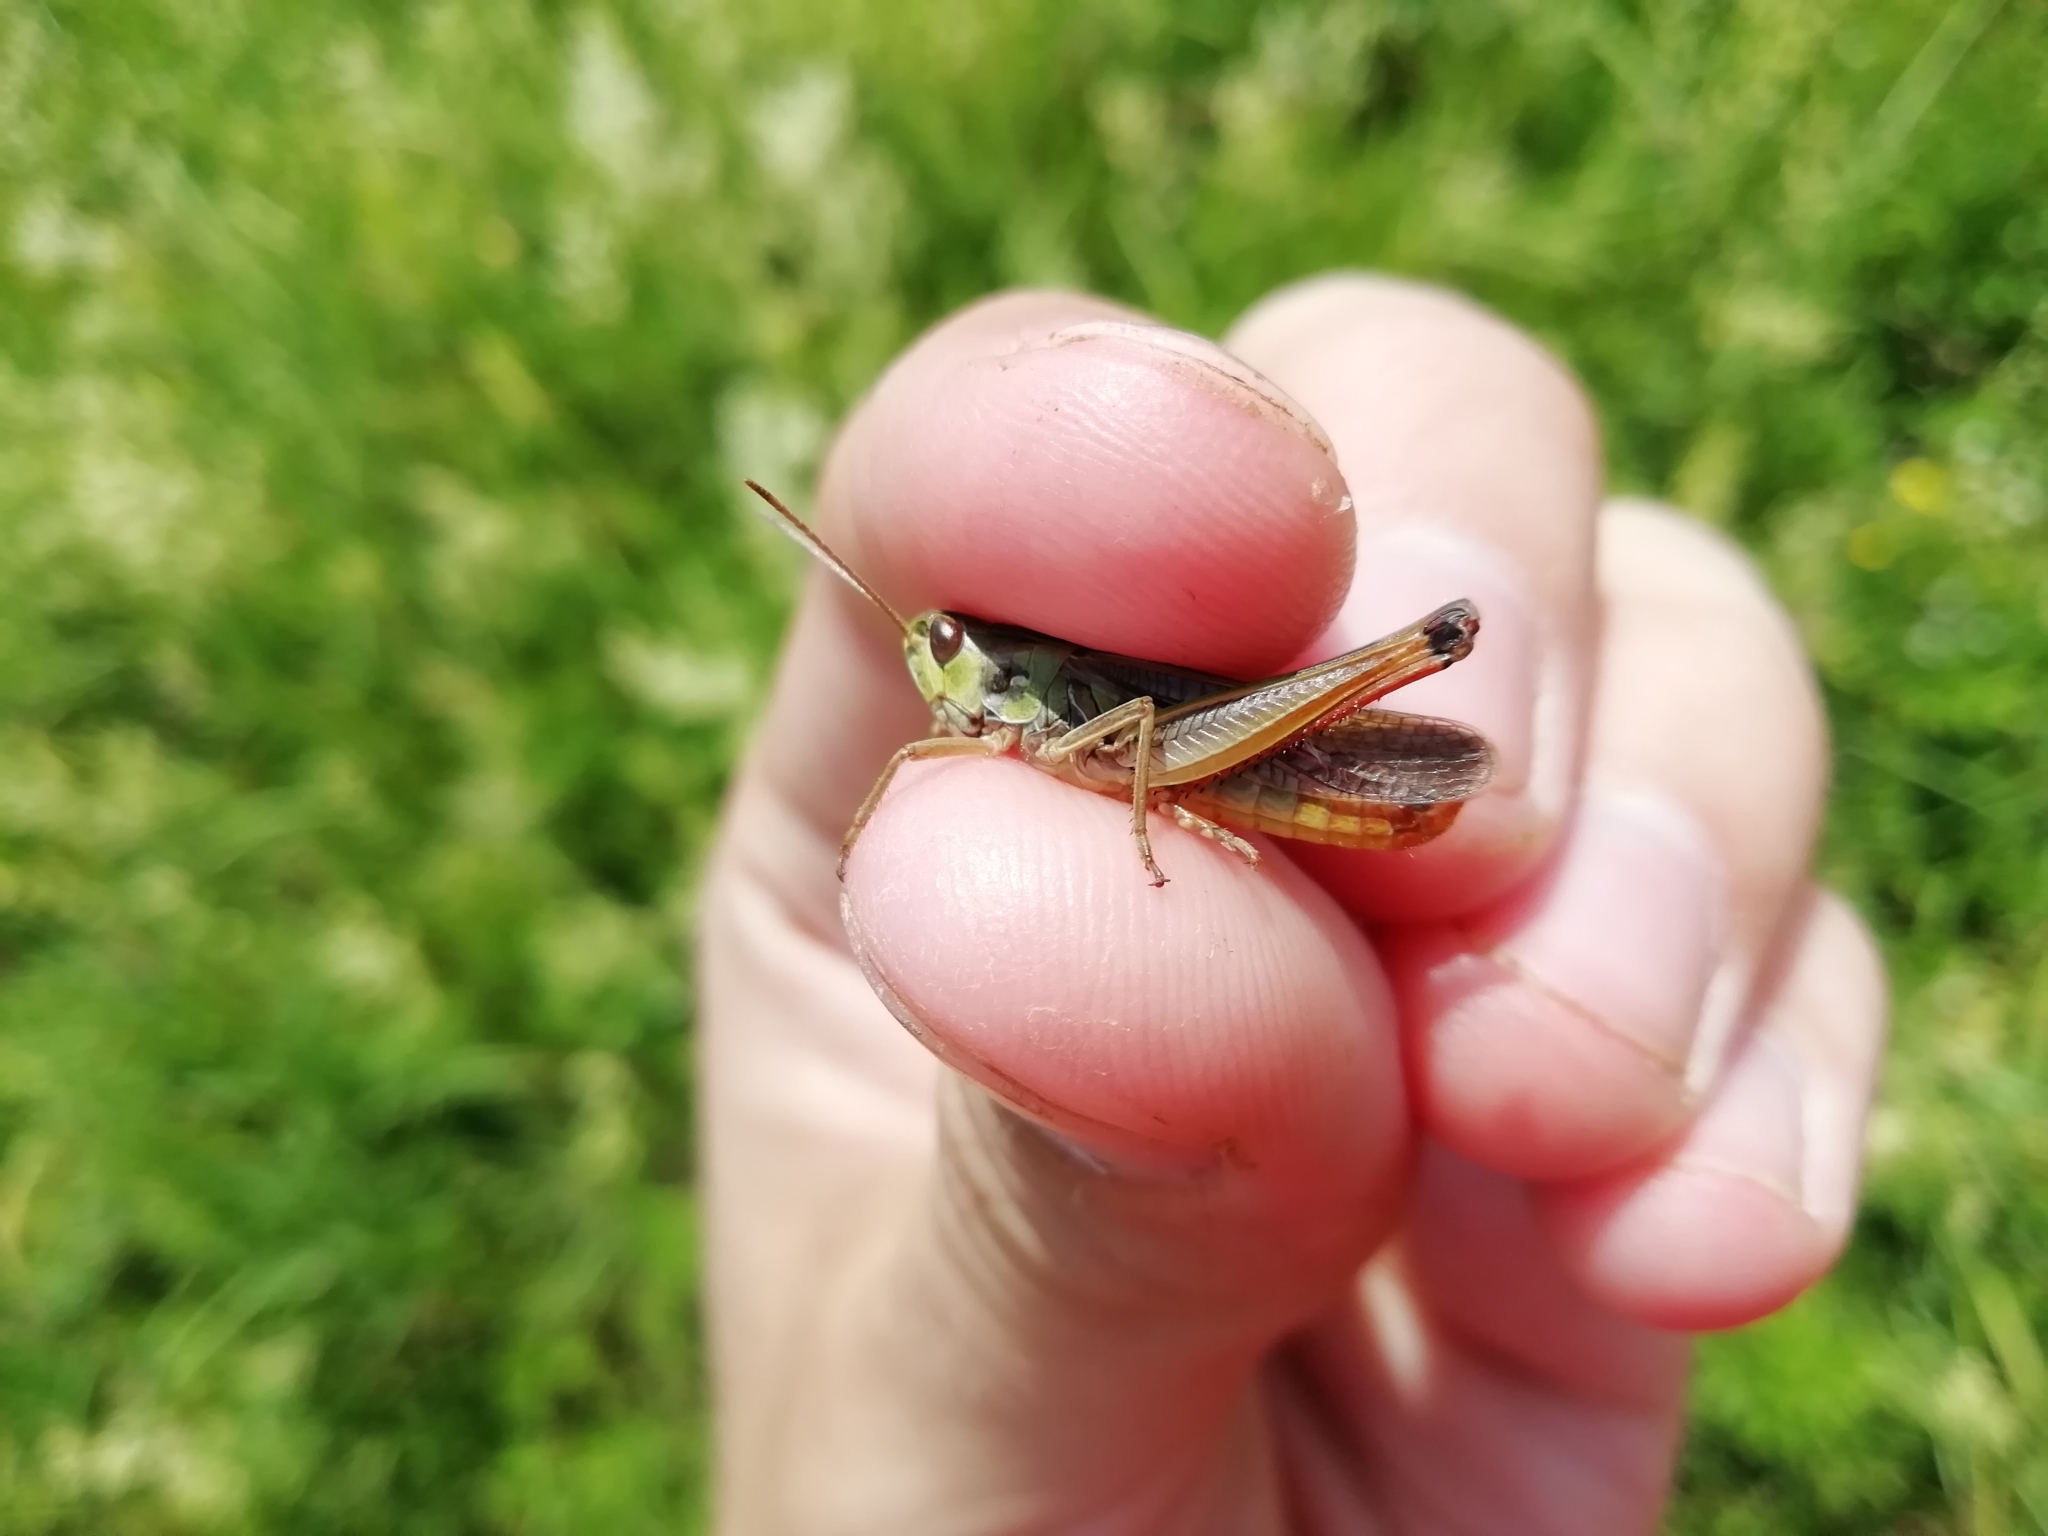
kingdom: Animalia
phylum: Arthropoda
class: Insecta
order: Orthoptera
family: Acrididae
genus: Omocestus
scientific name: Omocestus viridulus
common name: Common green grasshopper
